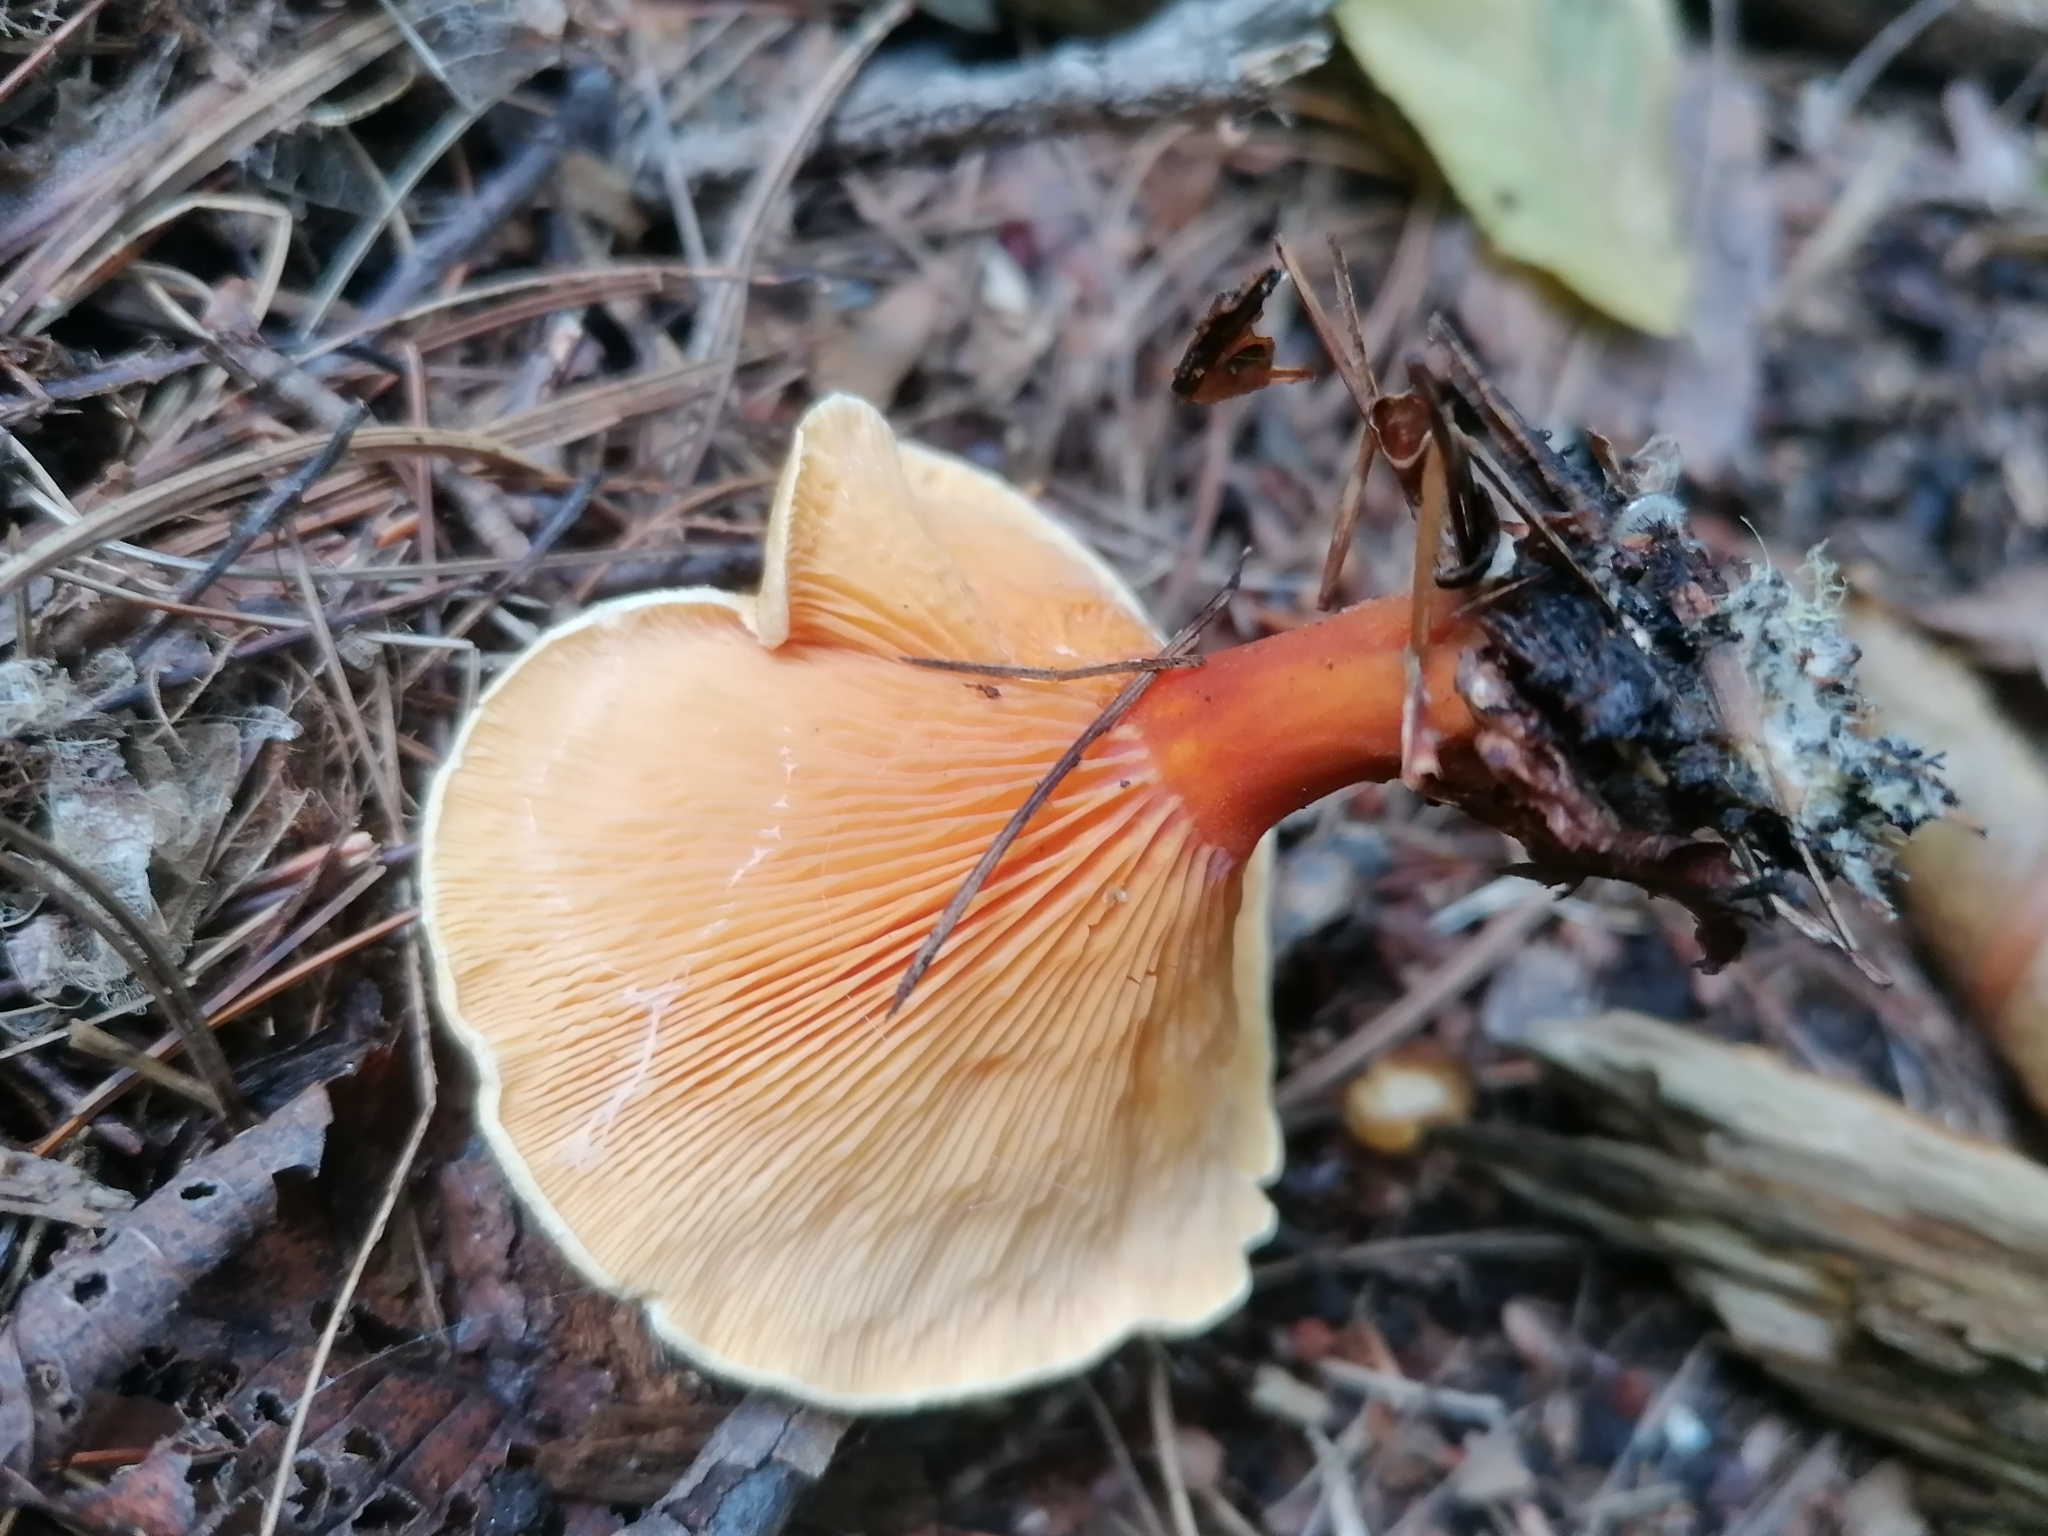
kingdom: Fungi
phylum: Basidiomycota
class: Agaricomycetes
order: Boletales
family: Hygrophoropsidaceae
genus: Hygrophoropsis
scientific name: Hygrophoropsis aurantiaca
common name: False chanterelle
